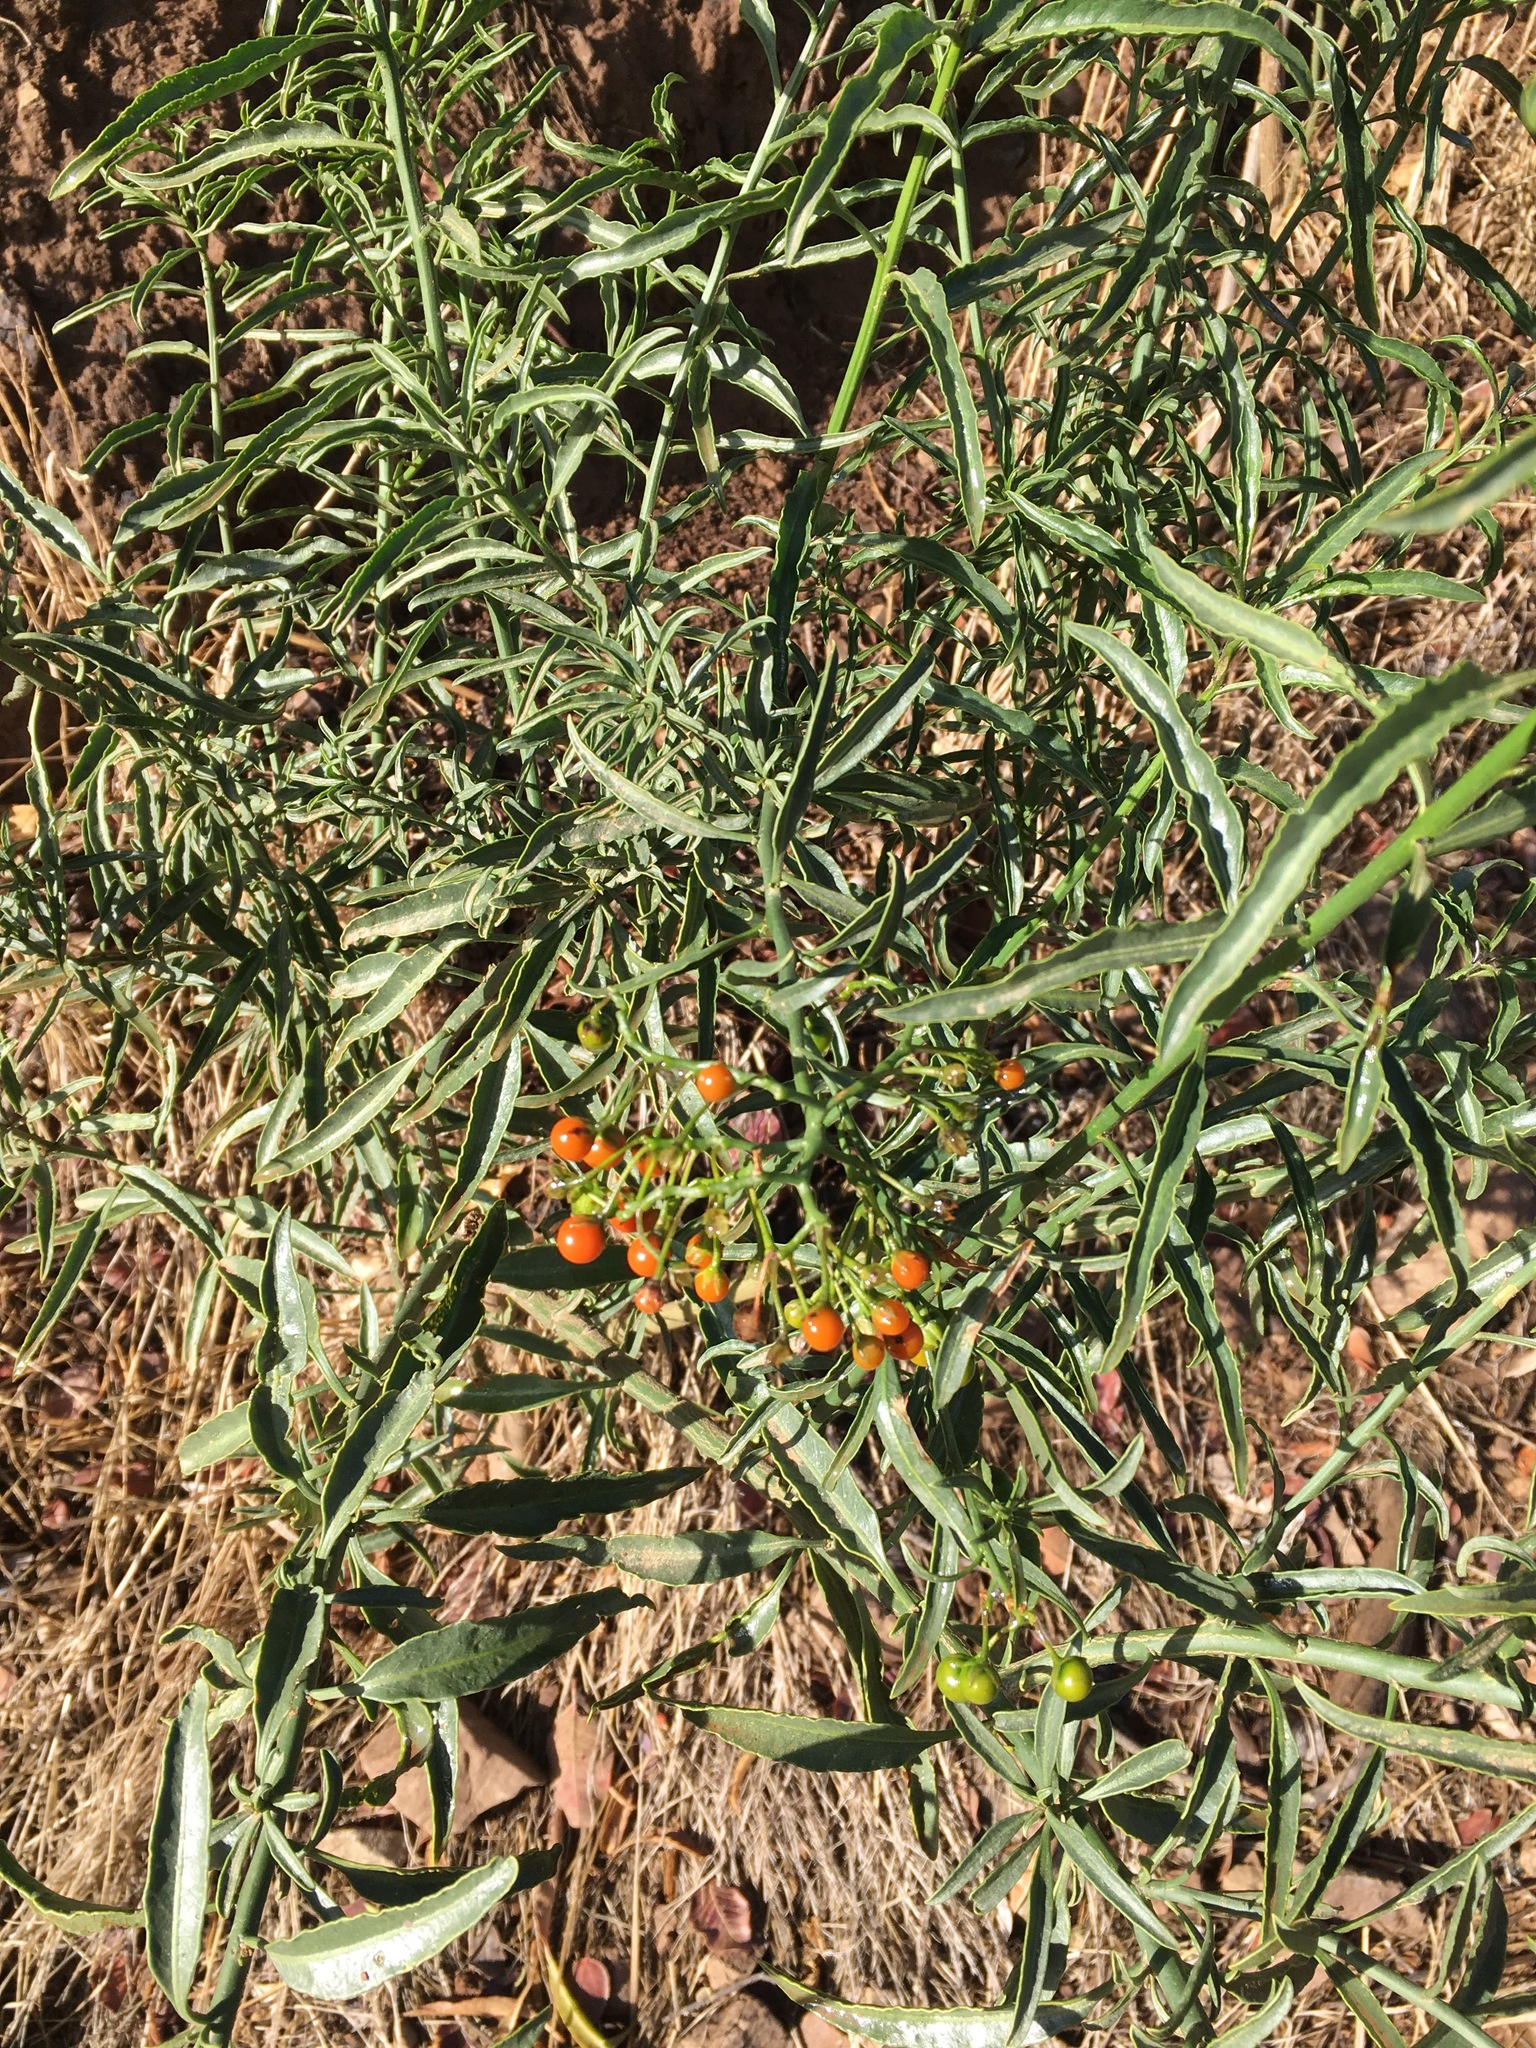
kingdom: Plantae
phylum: Tracheophyta
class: Magnoliopsida
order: Solanales
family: Solanaceae
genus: Solanum
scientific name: Solanum crispum
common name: Chilean nightshade
